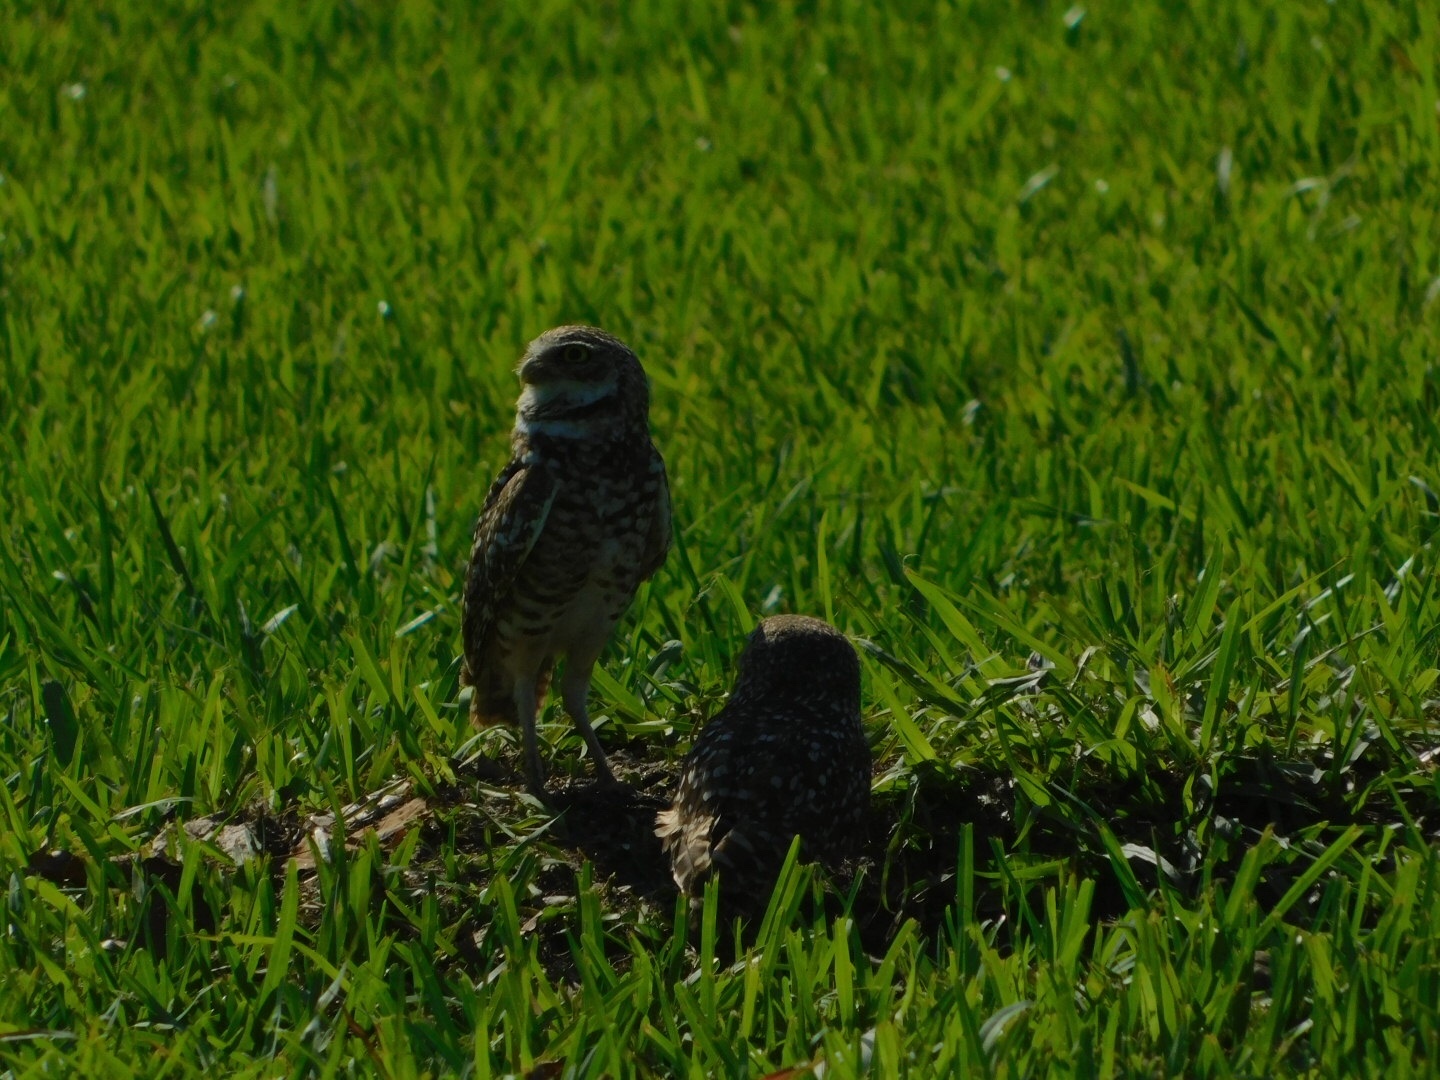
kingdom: Animalia
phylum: Chordata
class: Aves
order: Strigiformes
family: Strigidae
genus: Athene
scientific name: Athene cunicularia
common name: Burrowing owl
